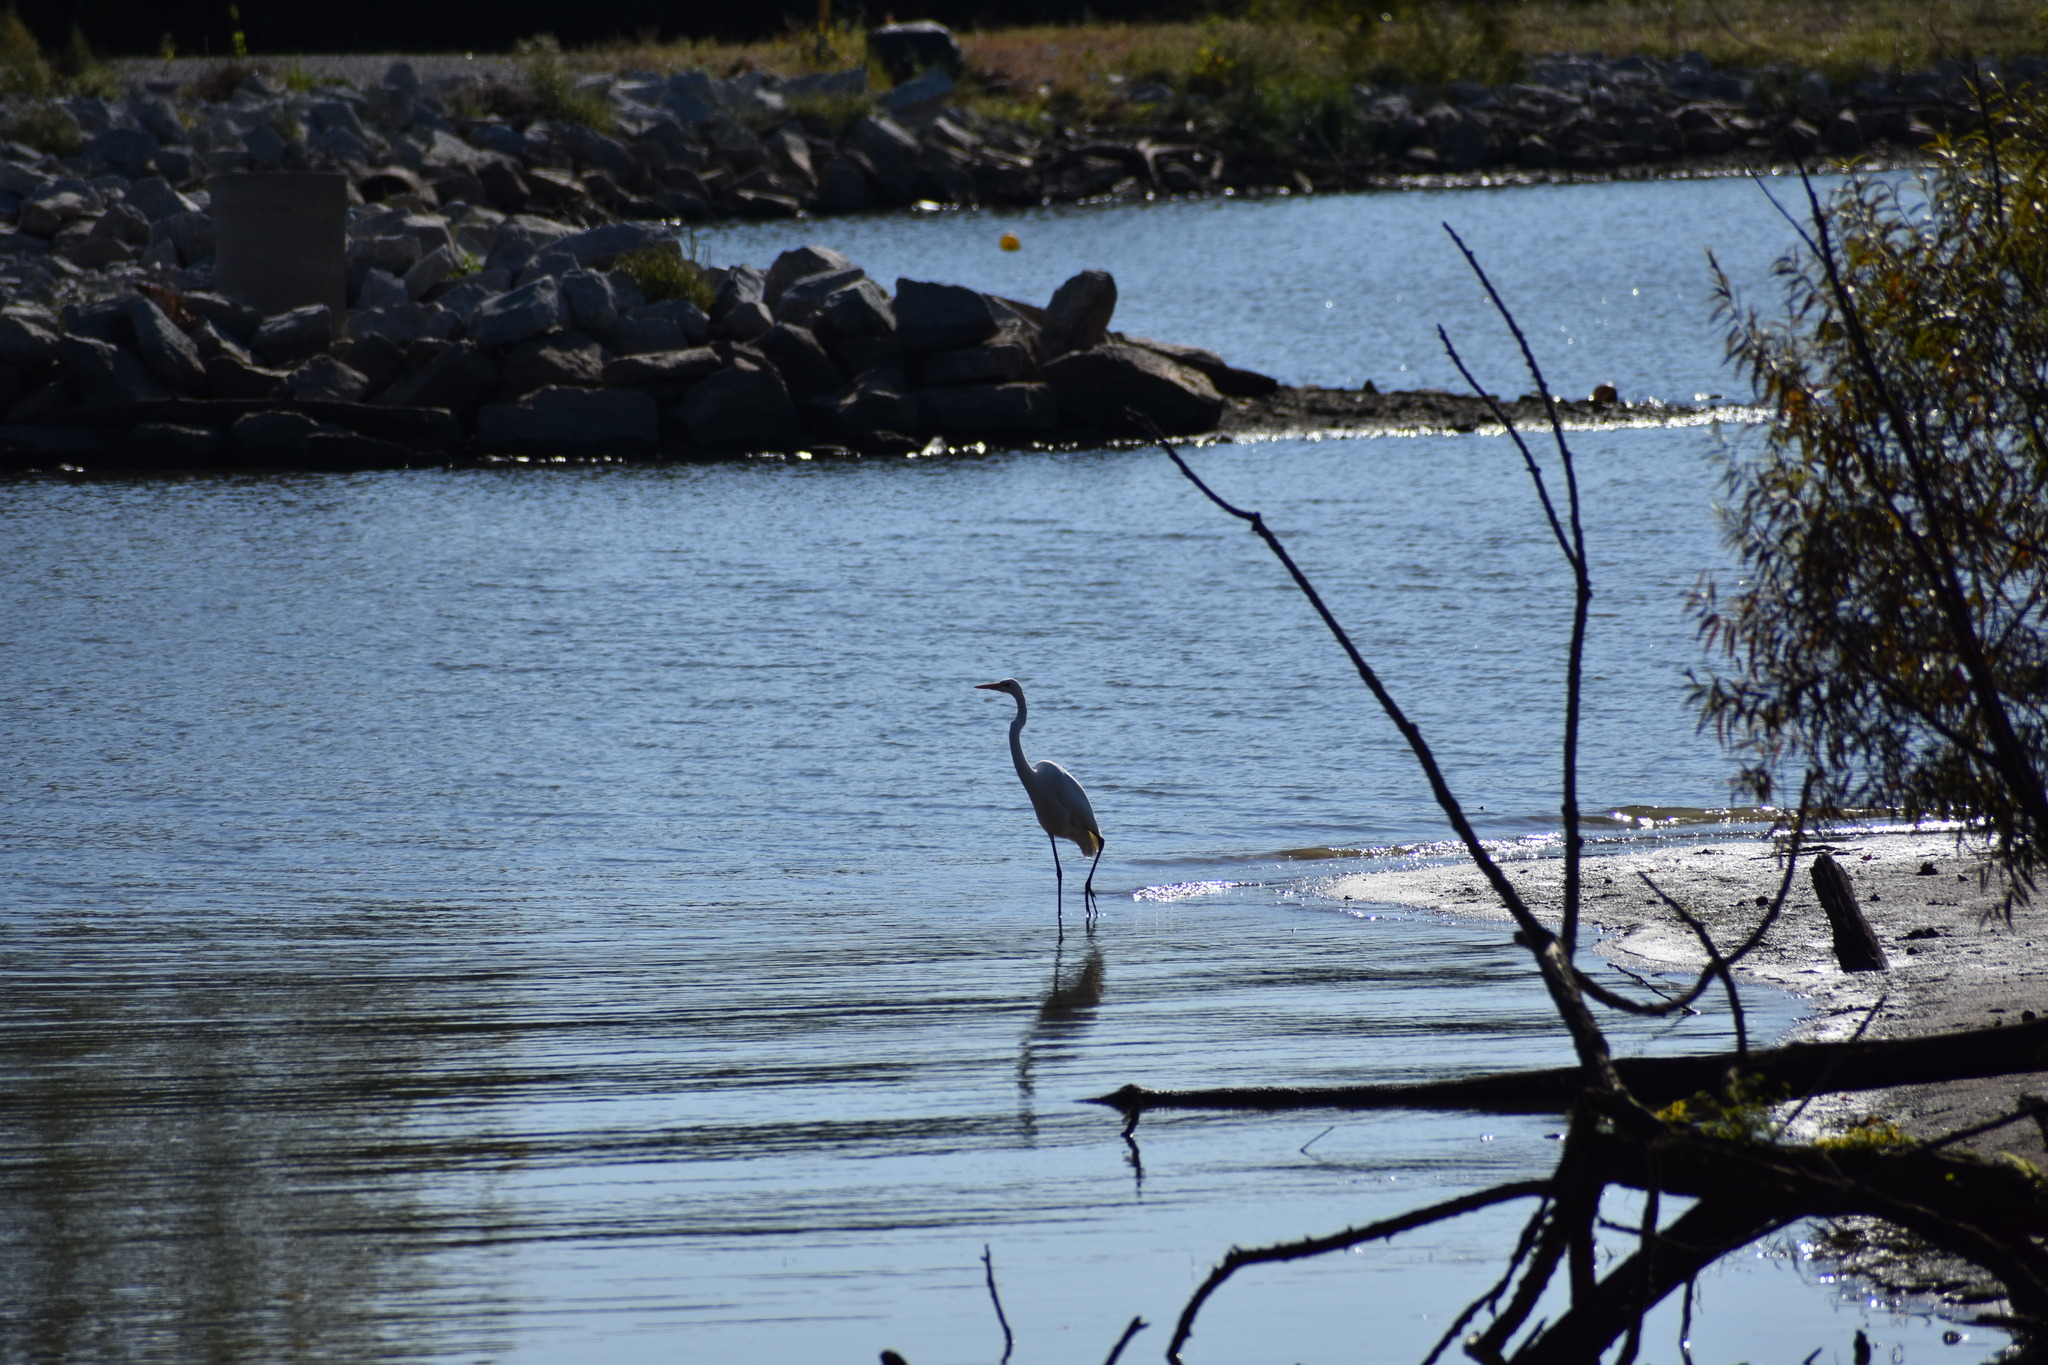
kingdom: Animalia
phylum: Chordata
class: Aves
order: Pelecaniformes
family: Ardeidae
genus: Ardea
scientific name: Ardea alba
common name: Great egret
